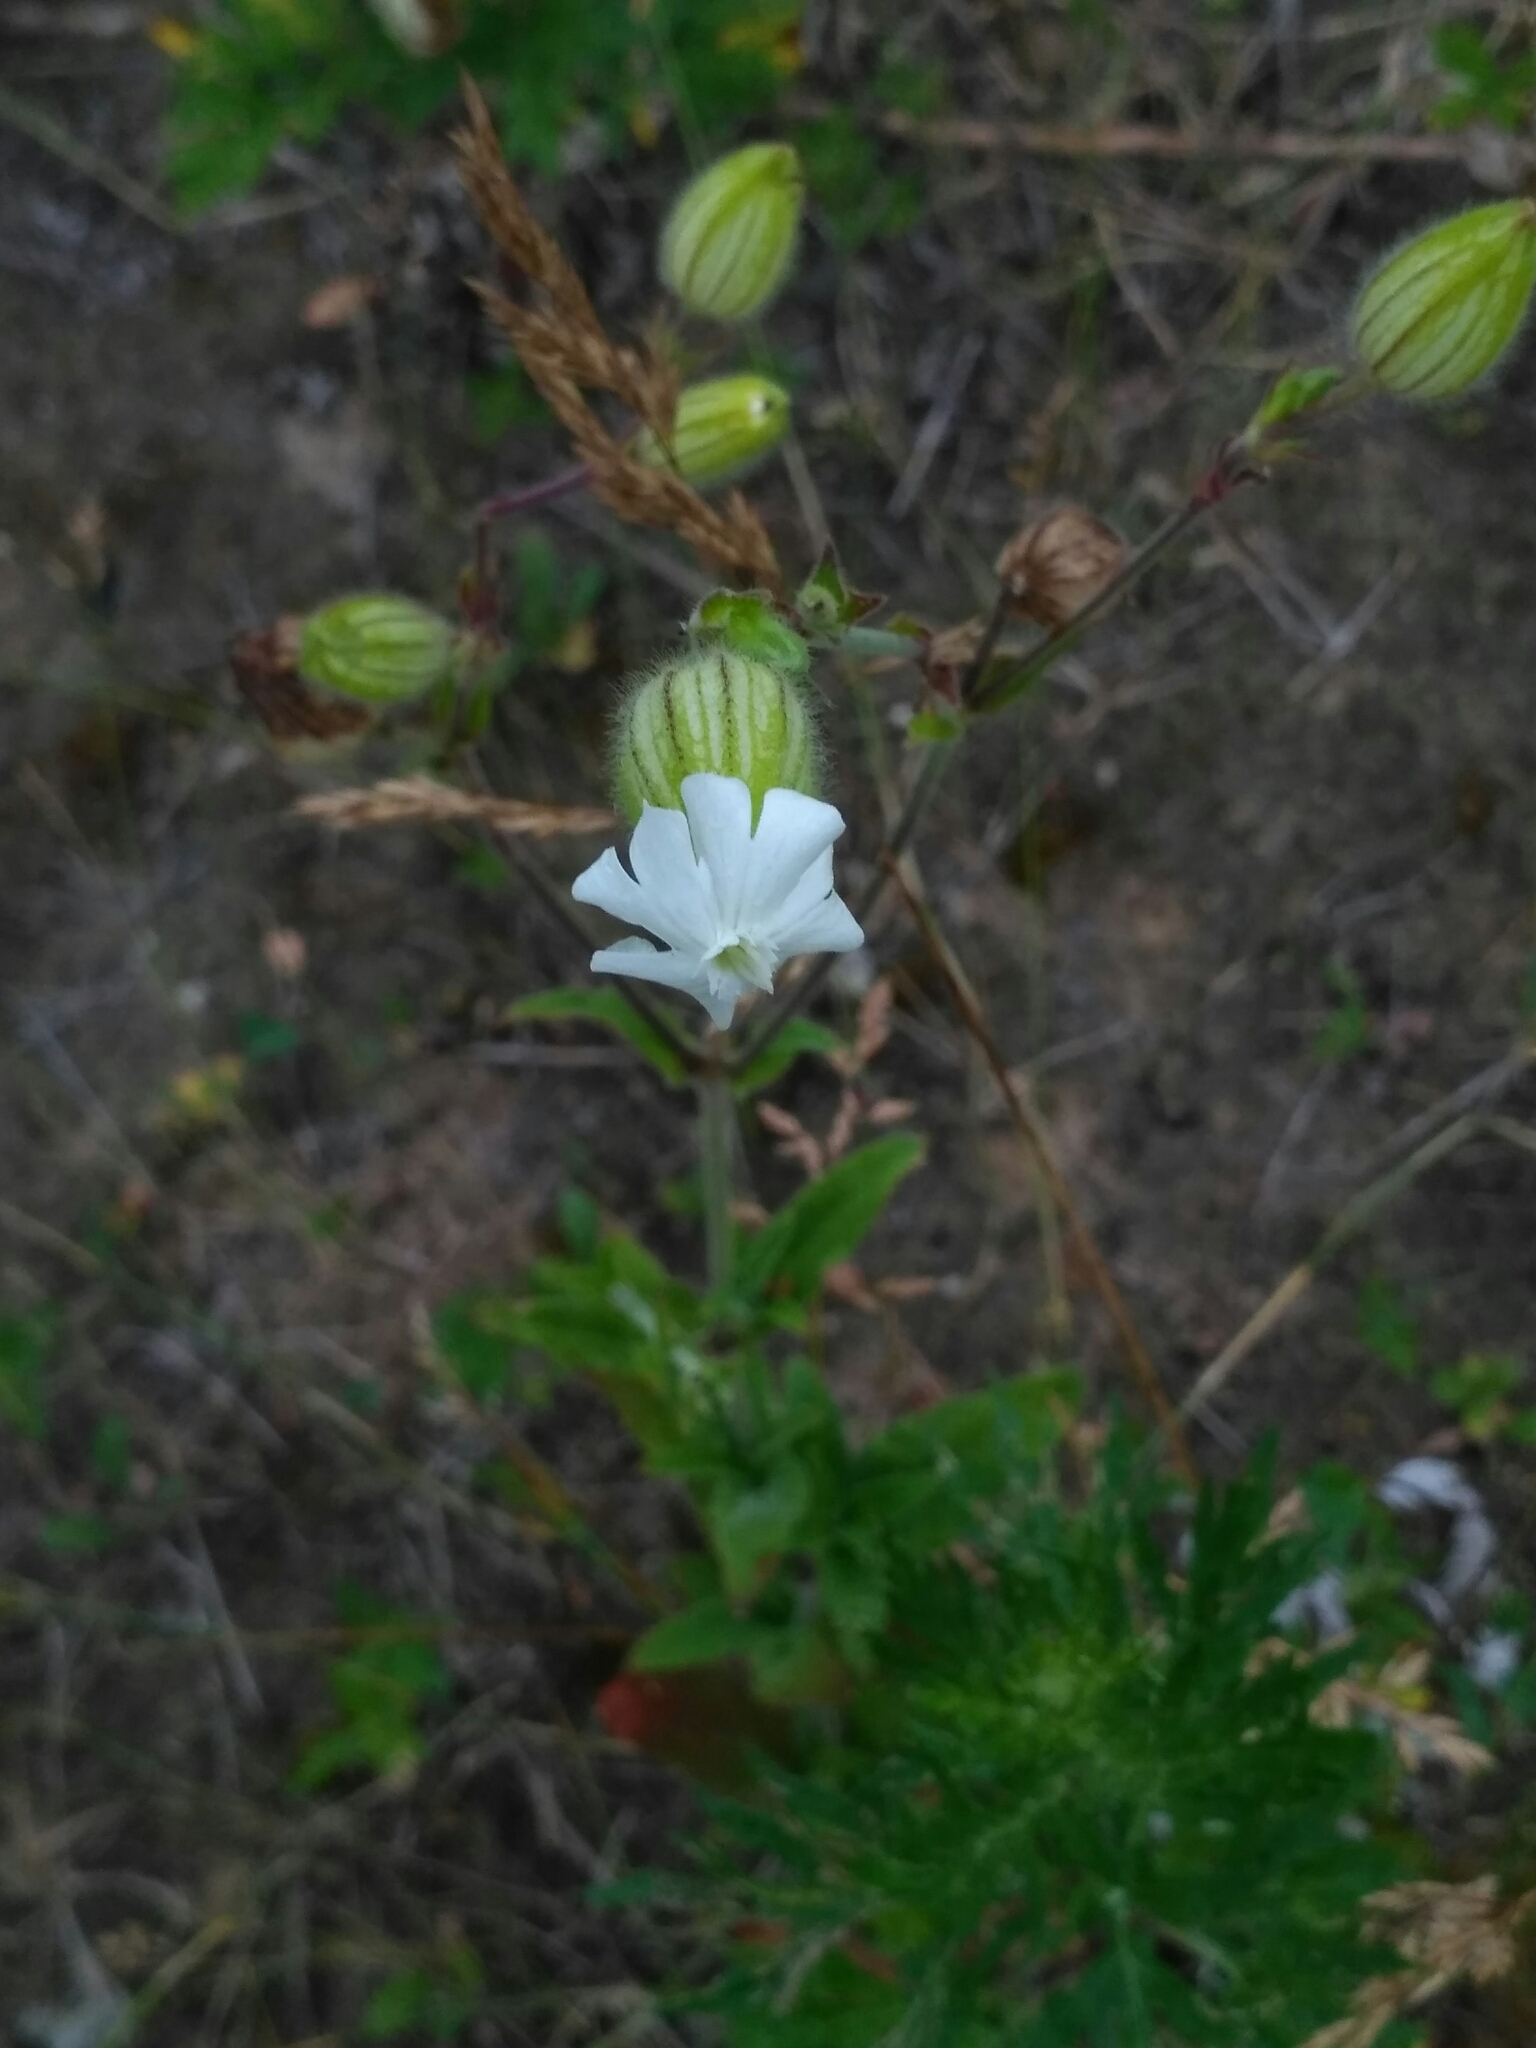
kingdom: Plantae
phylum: Tracheophyta
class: Magnoliopsida
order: Caryophyllales
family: Caryophyllaceae
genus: Silene
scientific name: Silene latifolia
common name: White campion
